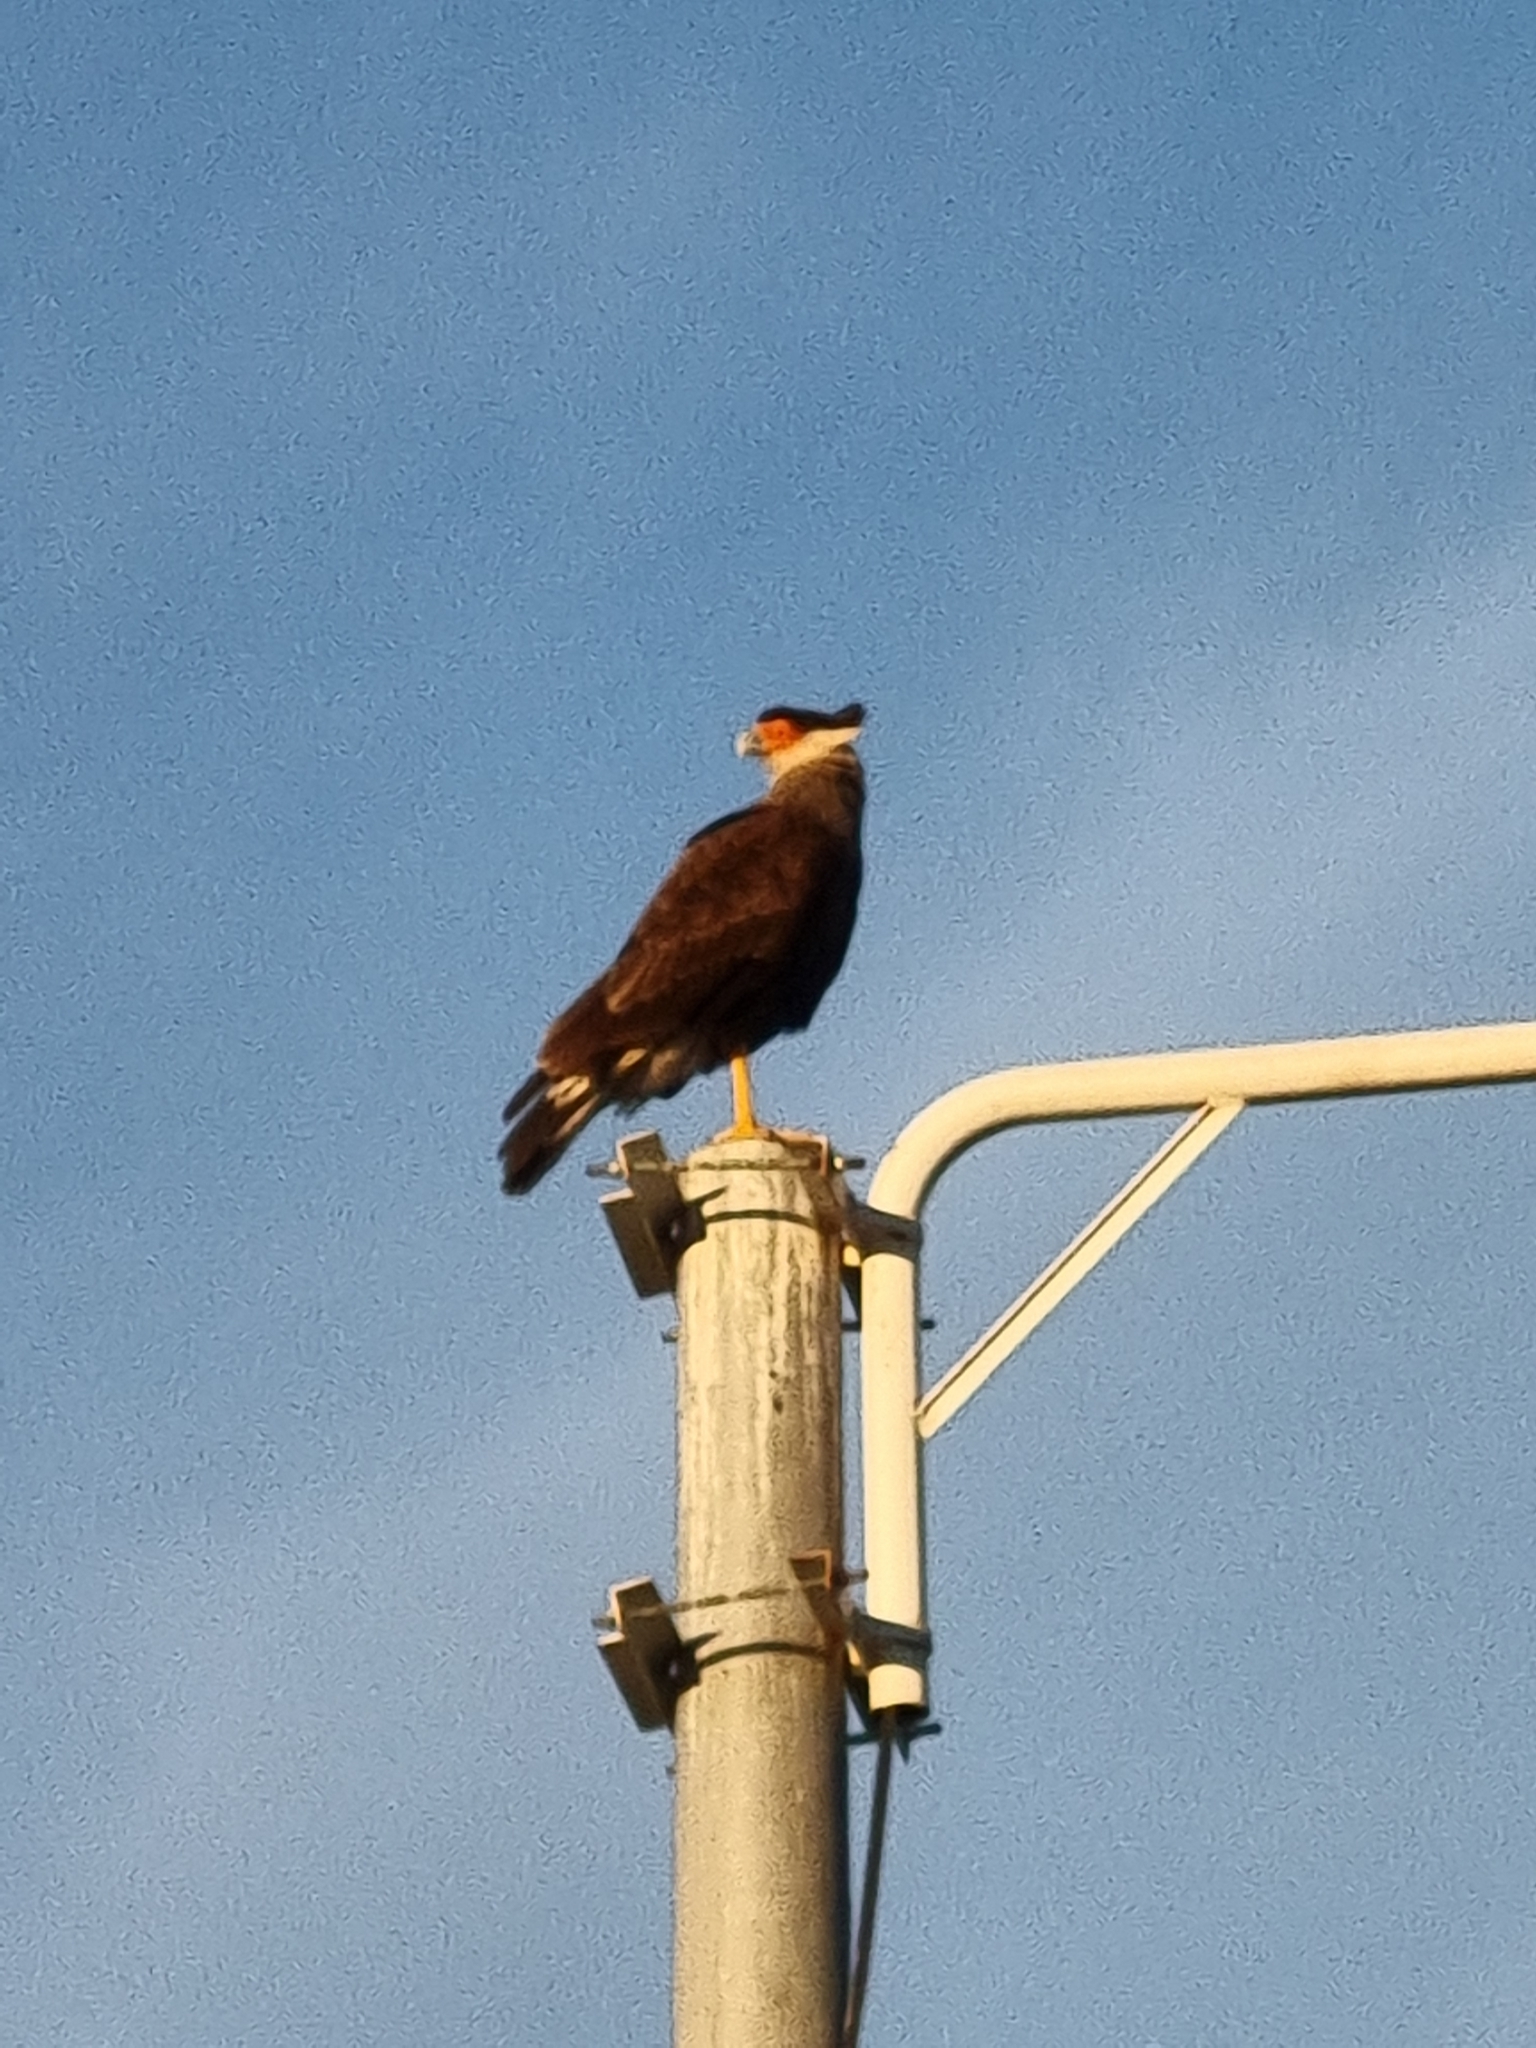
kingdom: Animalia
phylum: Chordata
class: Aves
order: Falconiformes
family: Falconidae
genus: Caracara
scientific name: Caracara plancus
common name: Southern caracara
